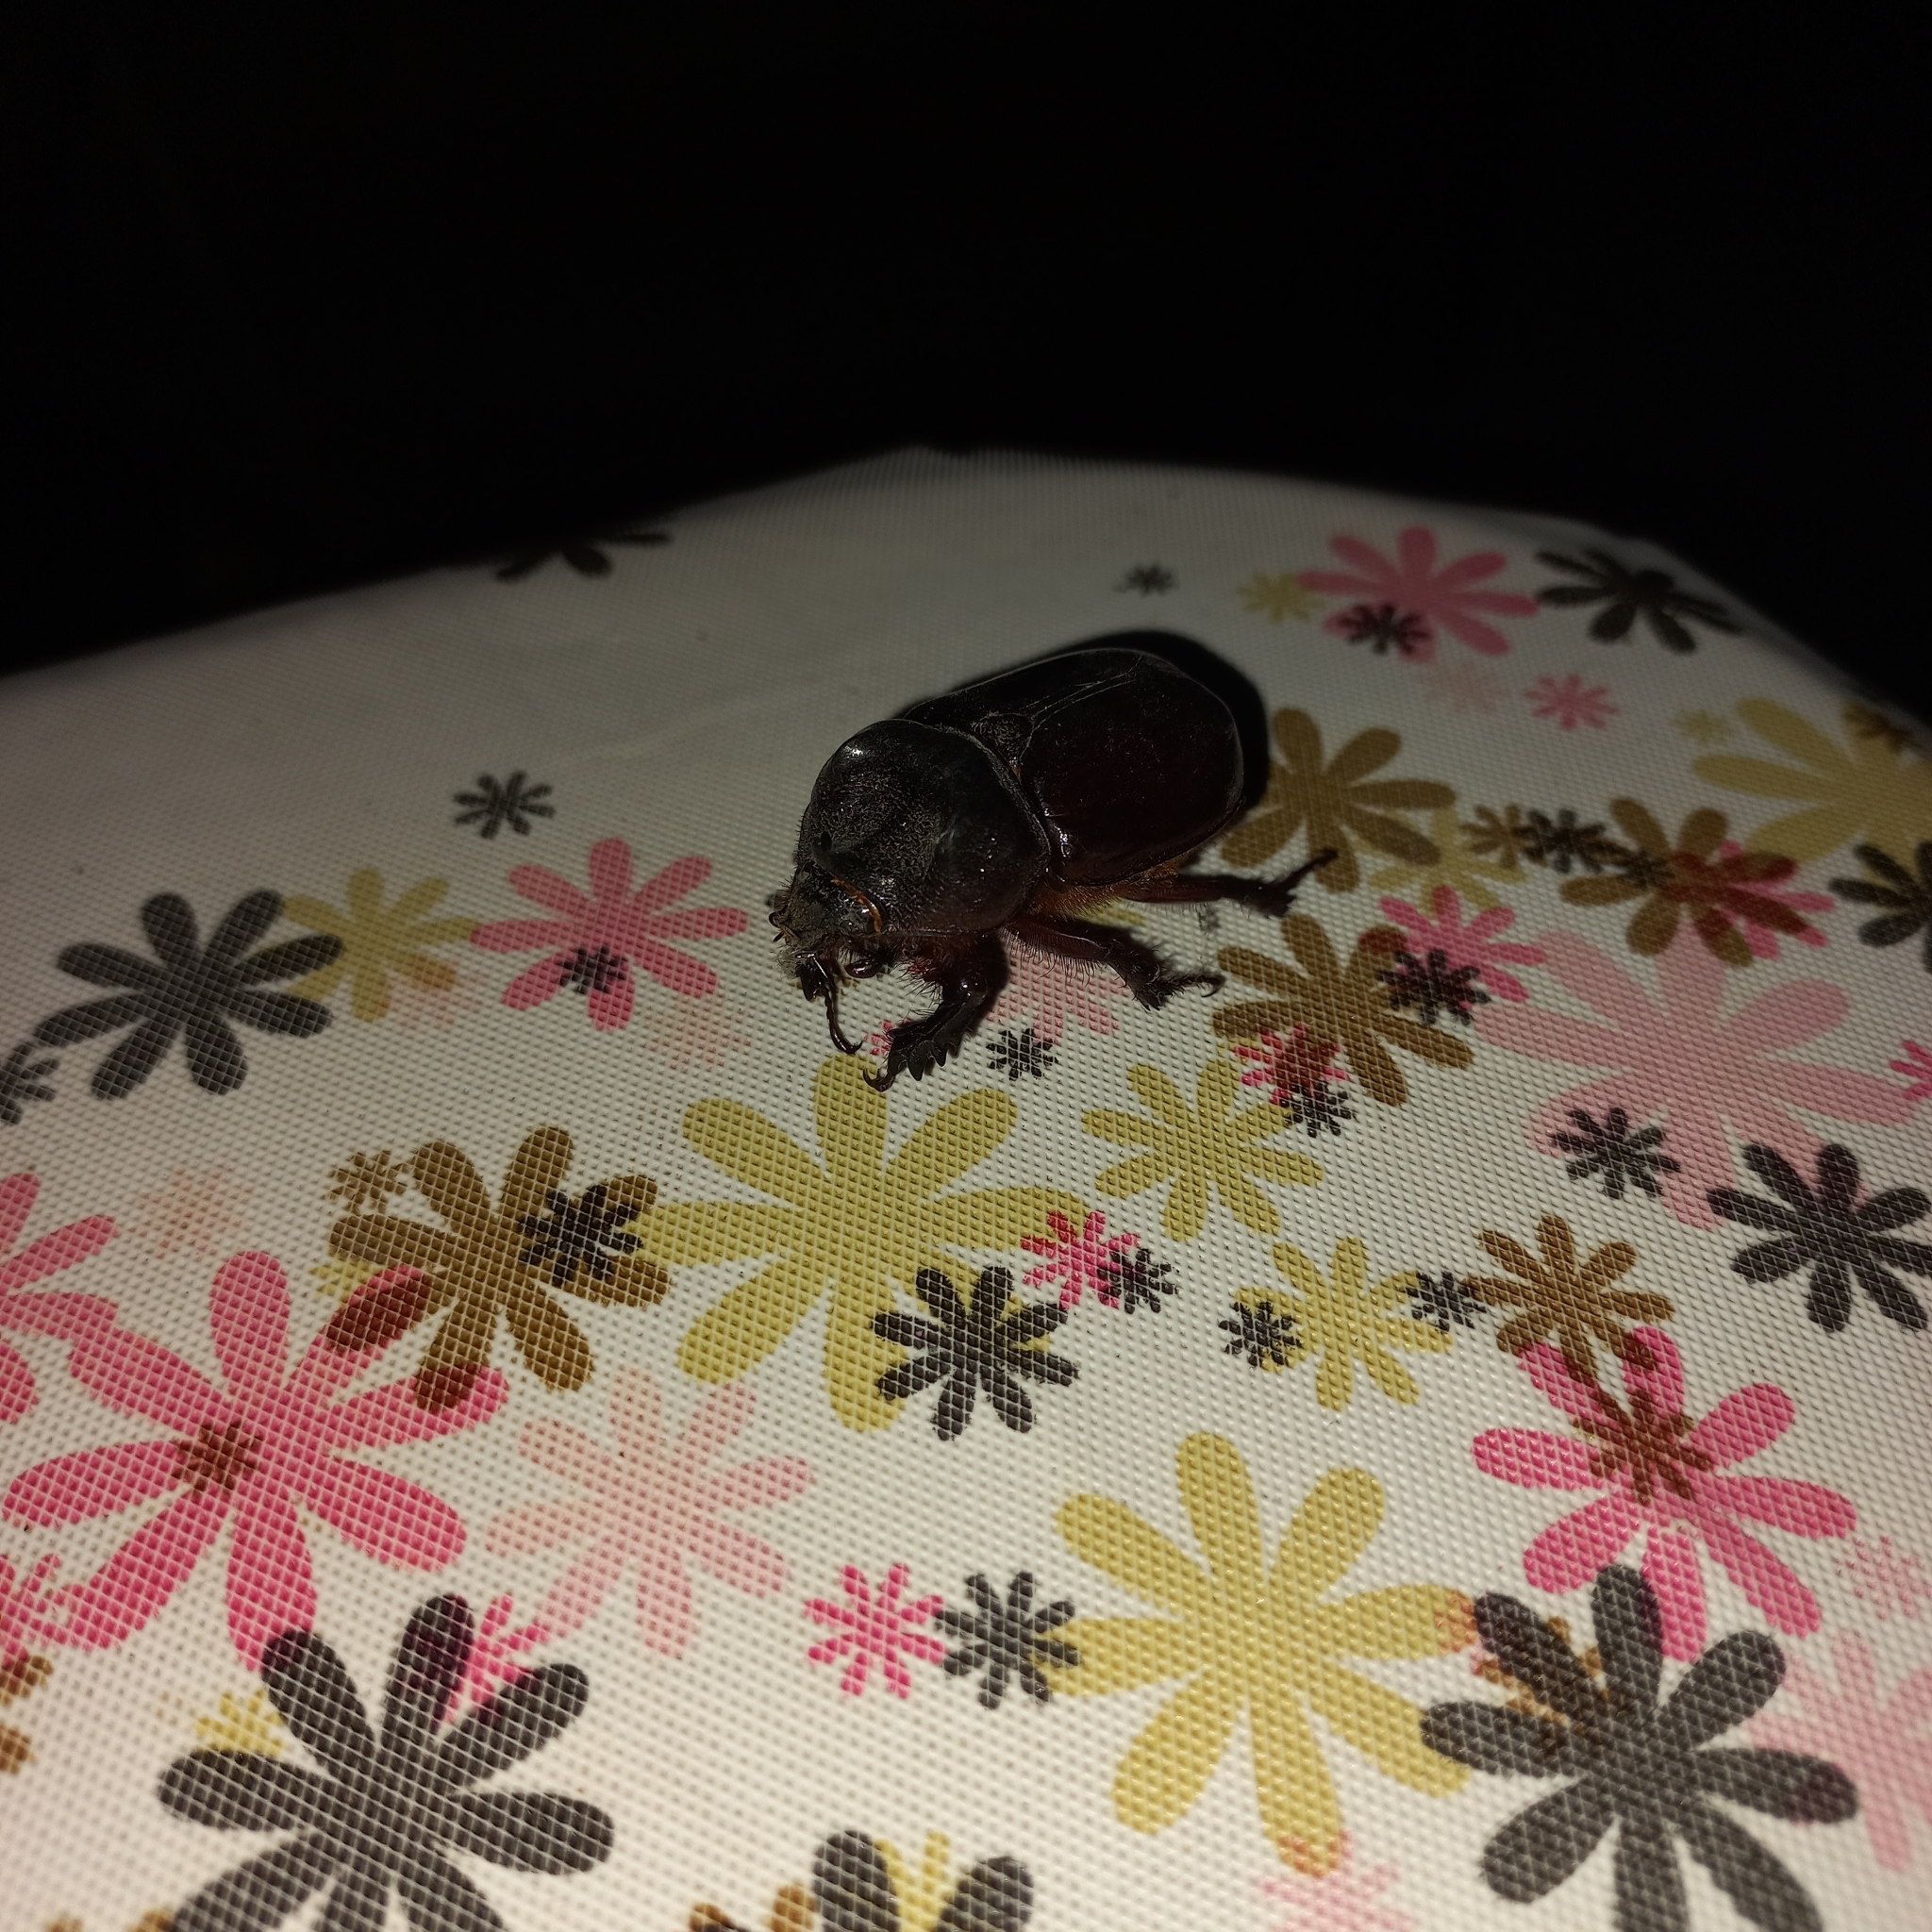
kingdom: Animalia
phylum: Arthropoda
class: Insecta
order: Coleoptera
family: Scarabaeidae
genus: Strategus
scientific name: Strategus aloeus
